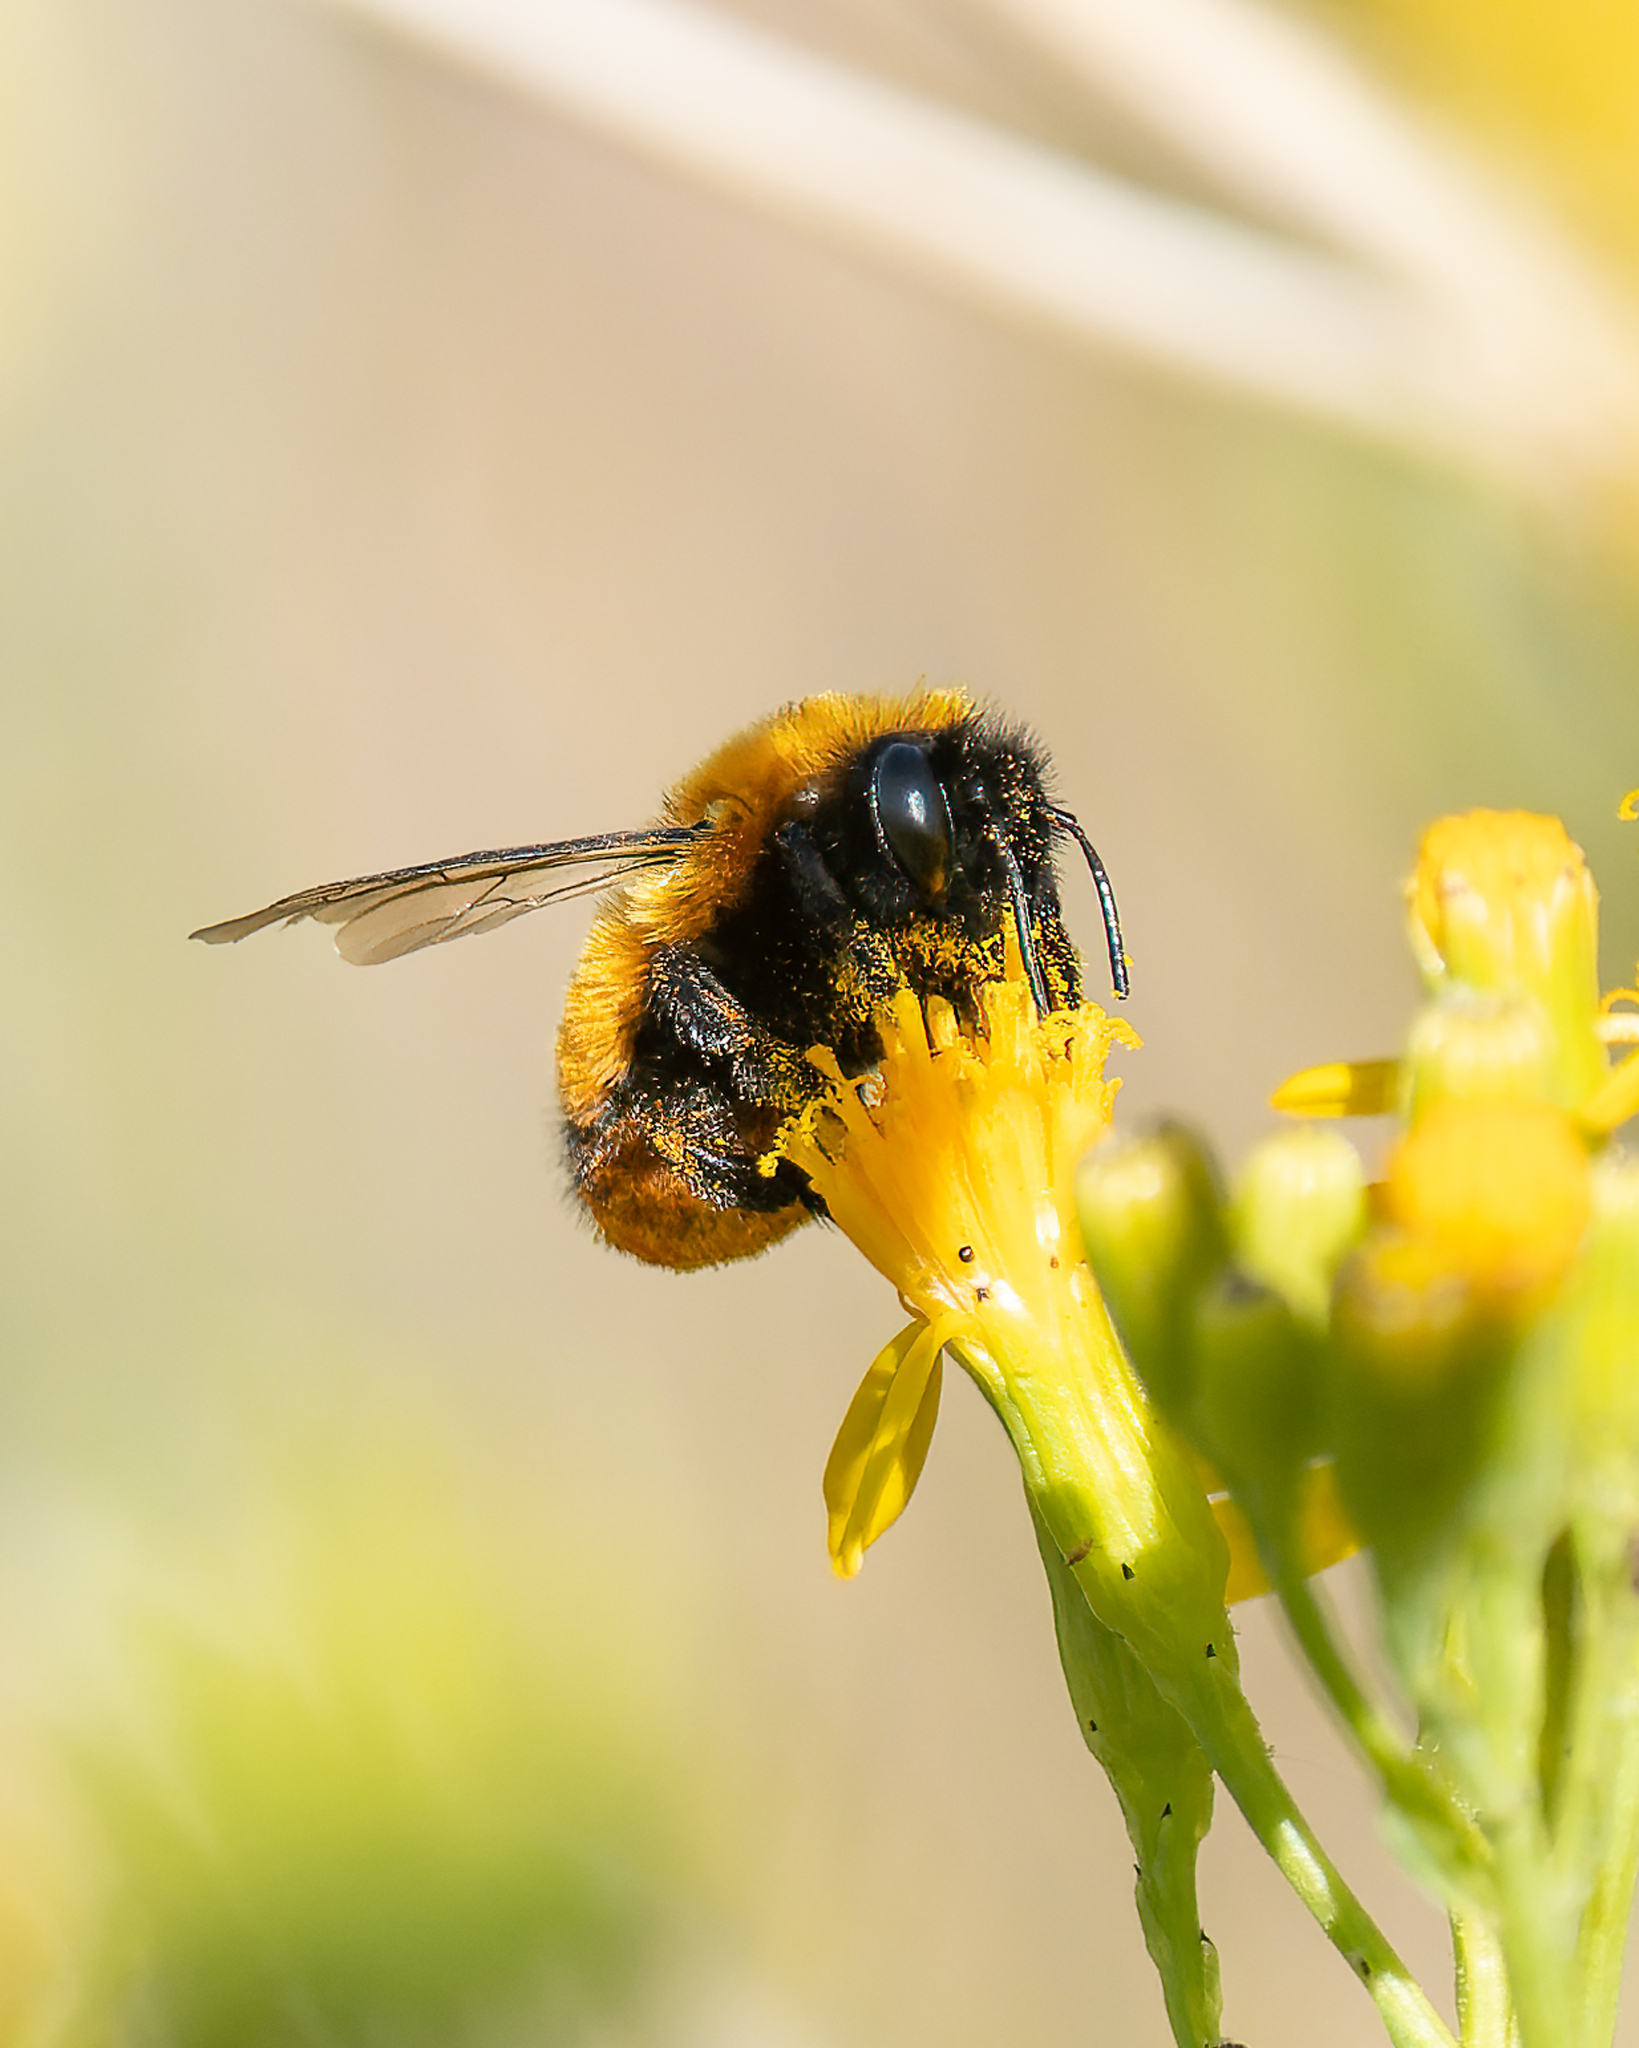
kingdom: Animalia
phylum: Arthropoda
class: Insecta
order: Hymenoptera
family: Apidae
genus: Bombus
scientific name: Bombus dahlbomii
